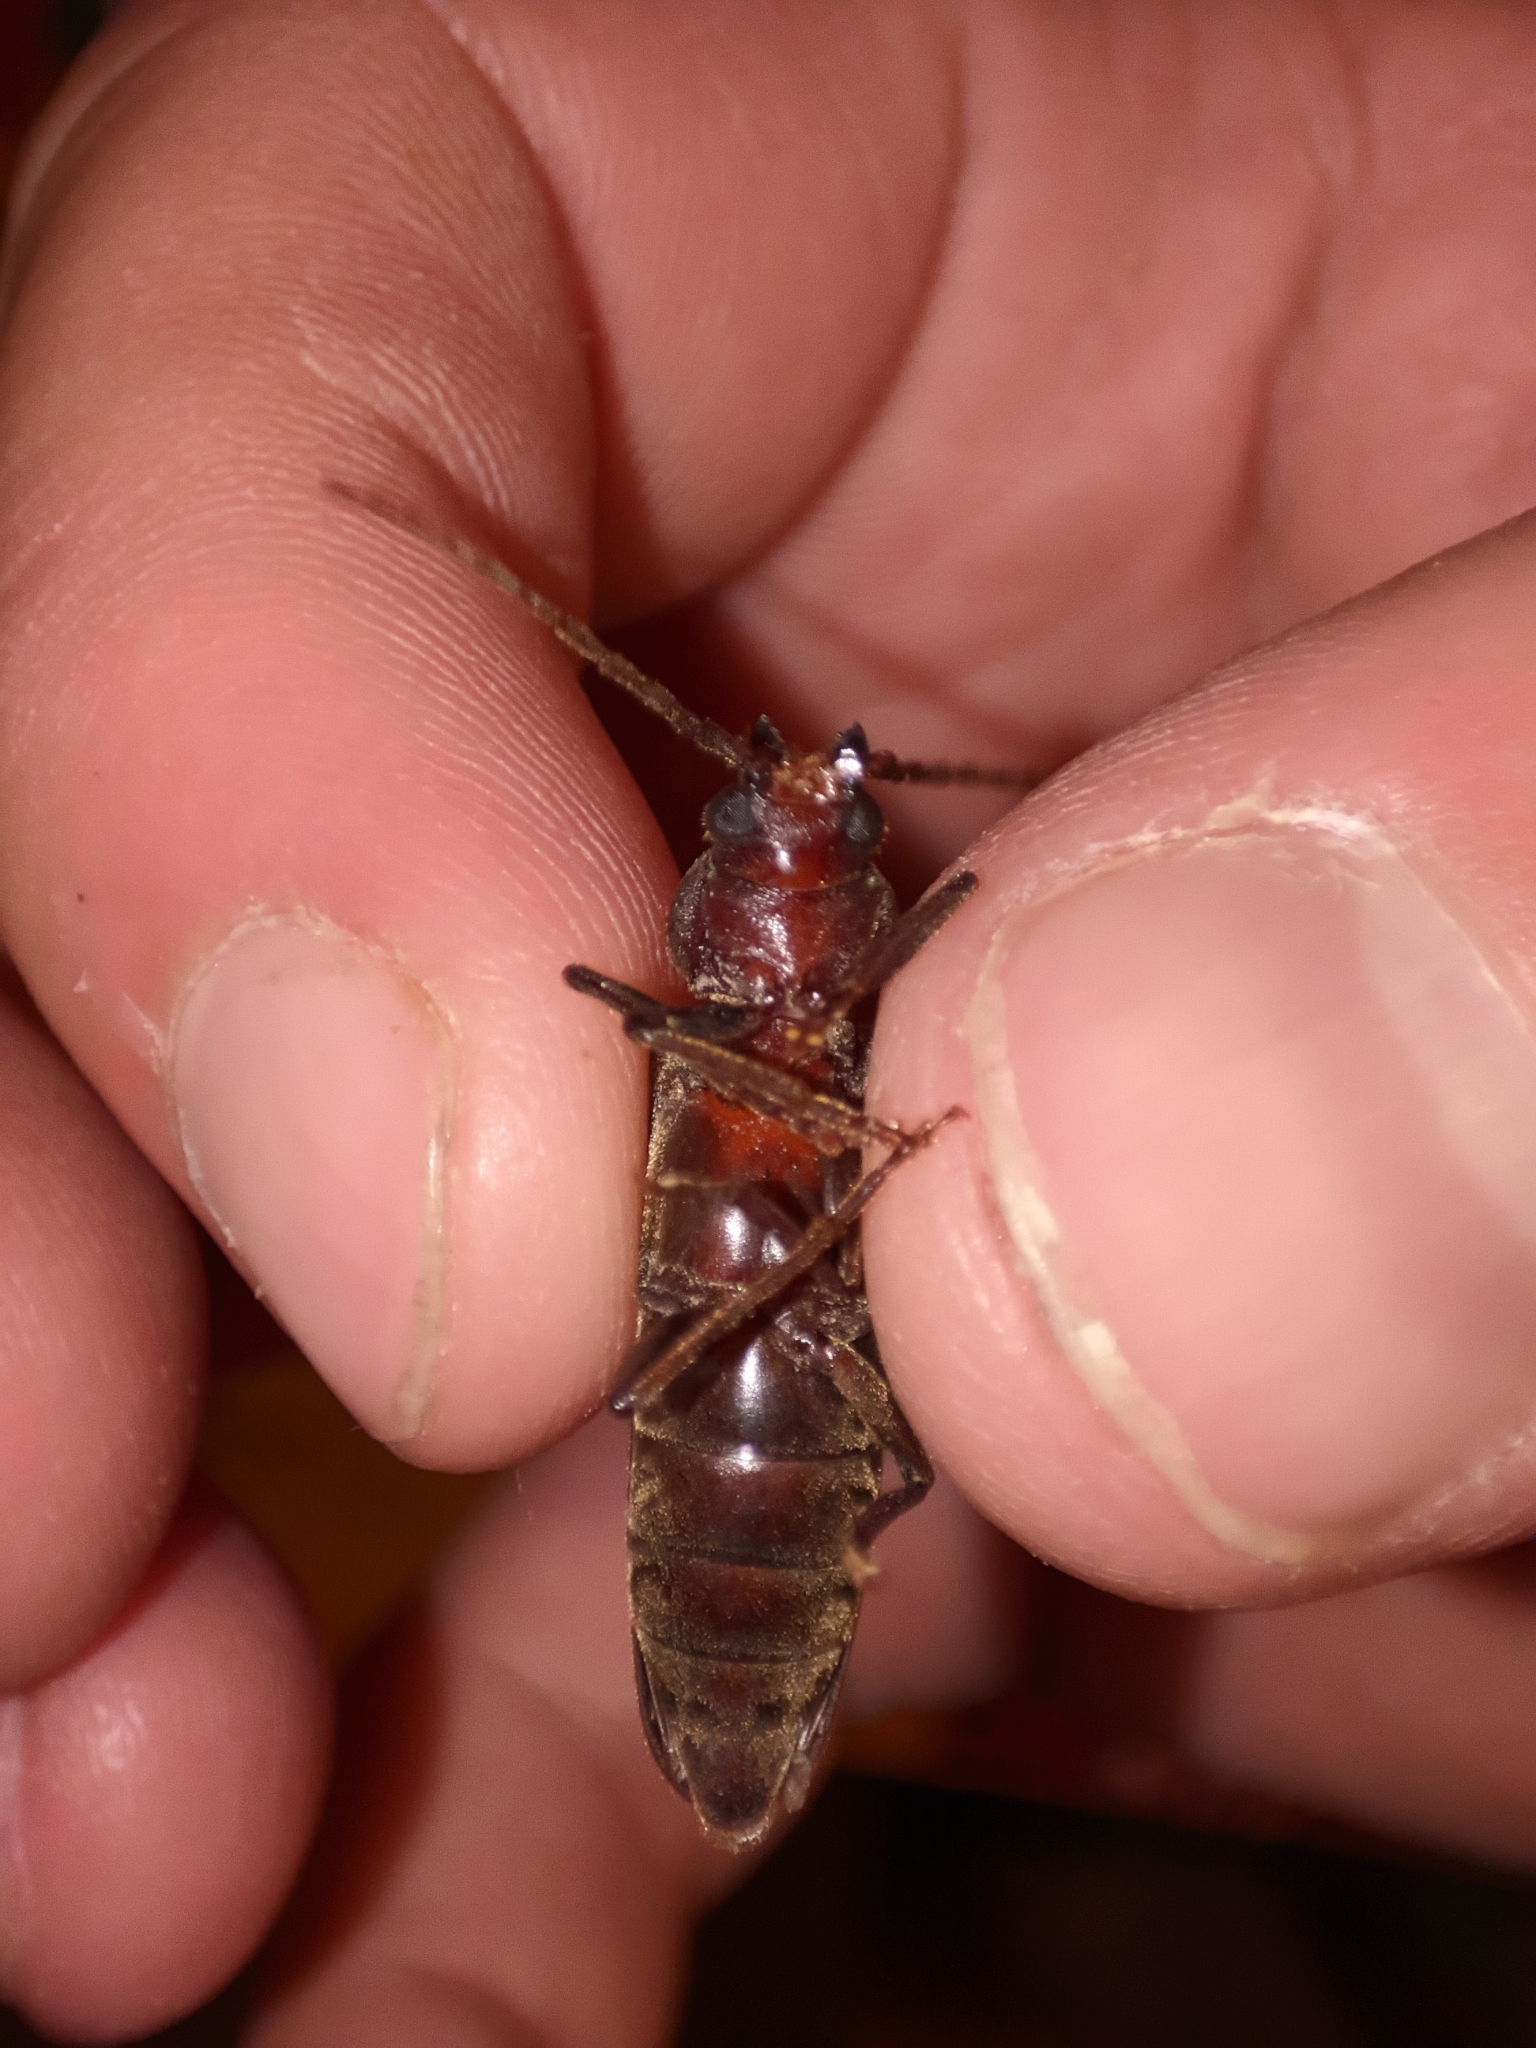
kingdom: Animalia
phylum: Arthropoda
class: Insecta
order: Coleoptera
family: Cerambycidae
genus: Arhopalus
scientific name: Arhopalus rusticus
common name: Rust pine borer
